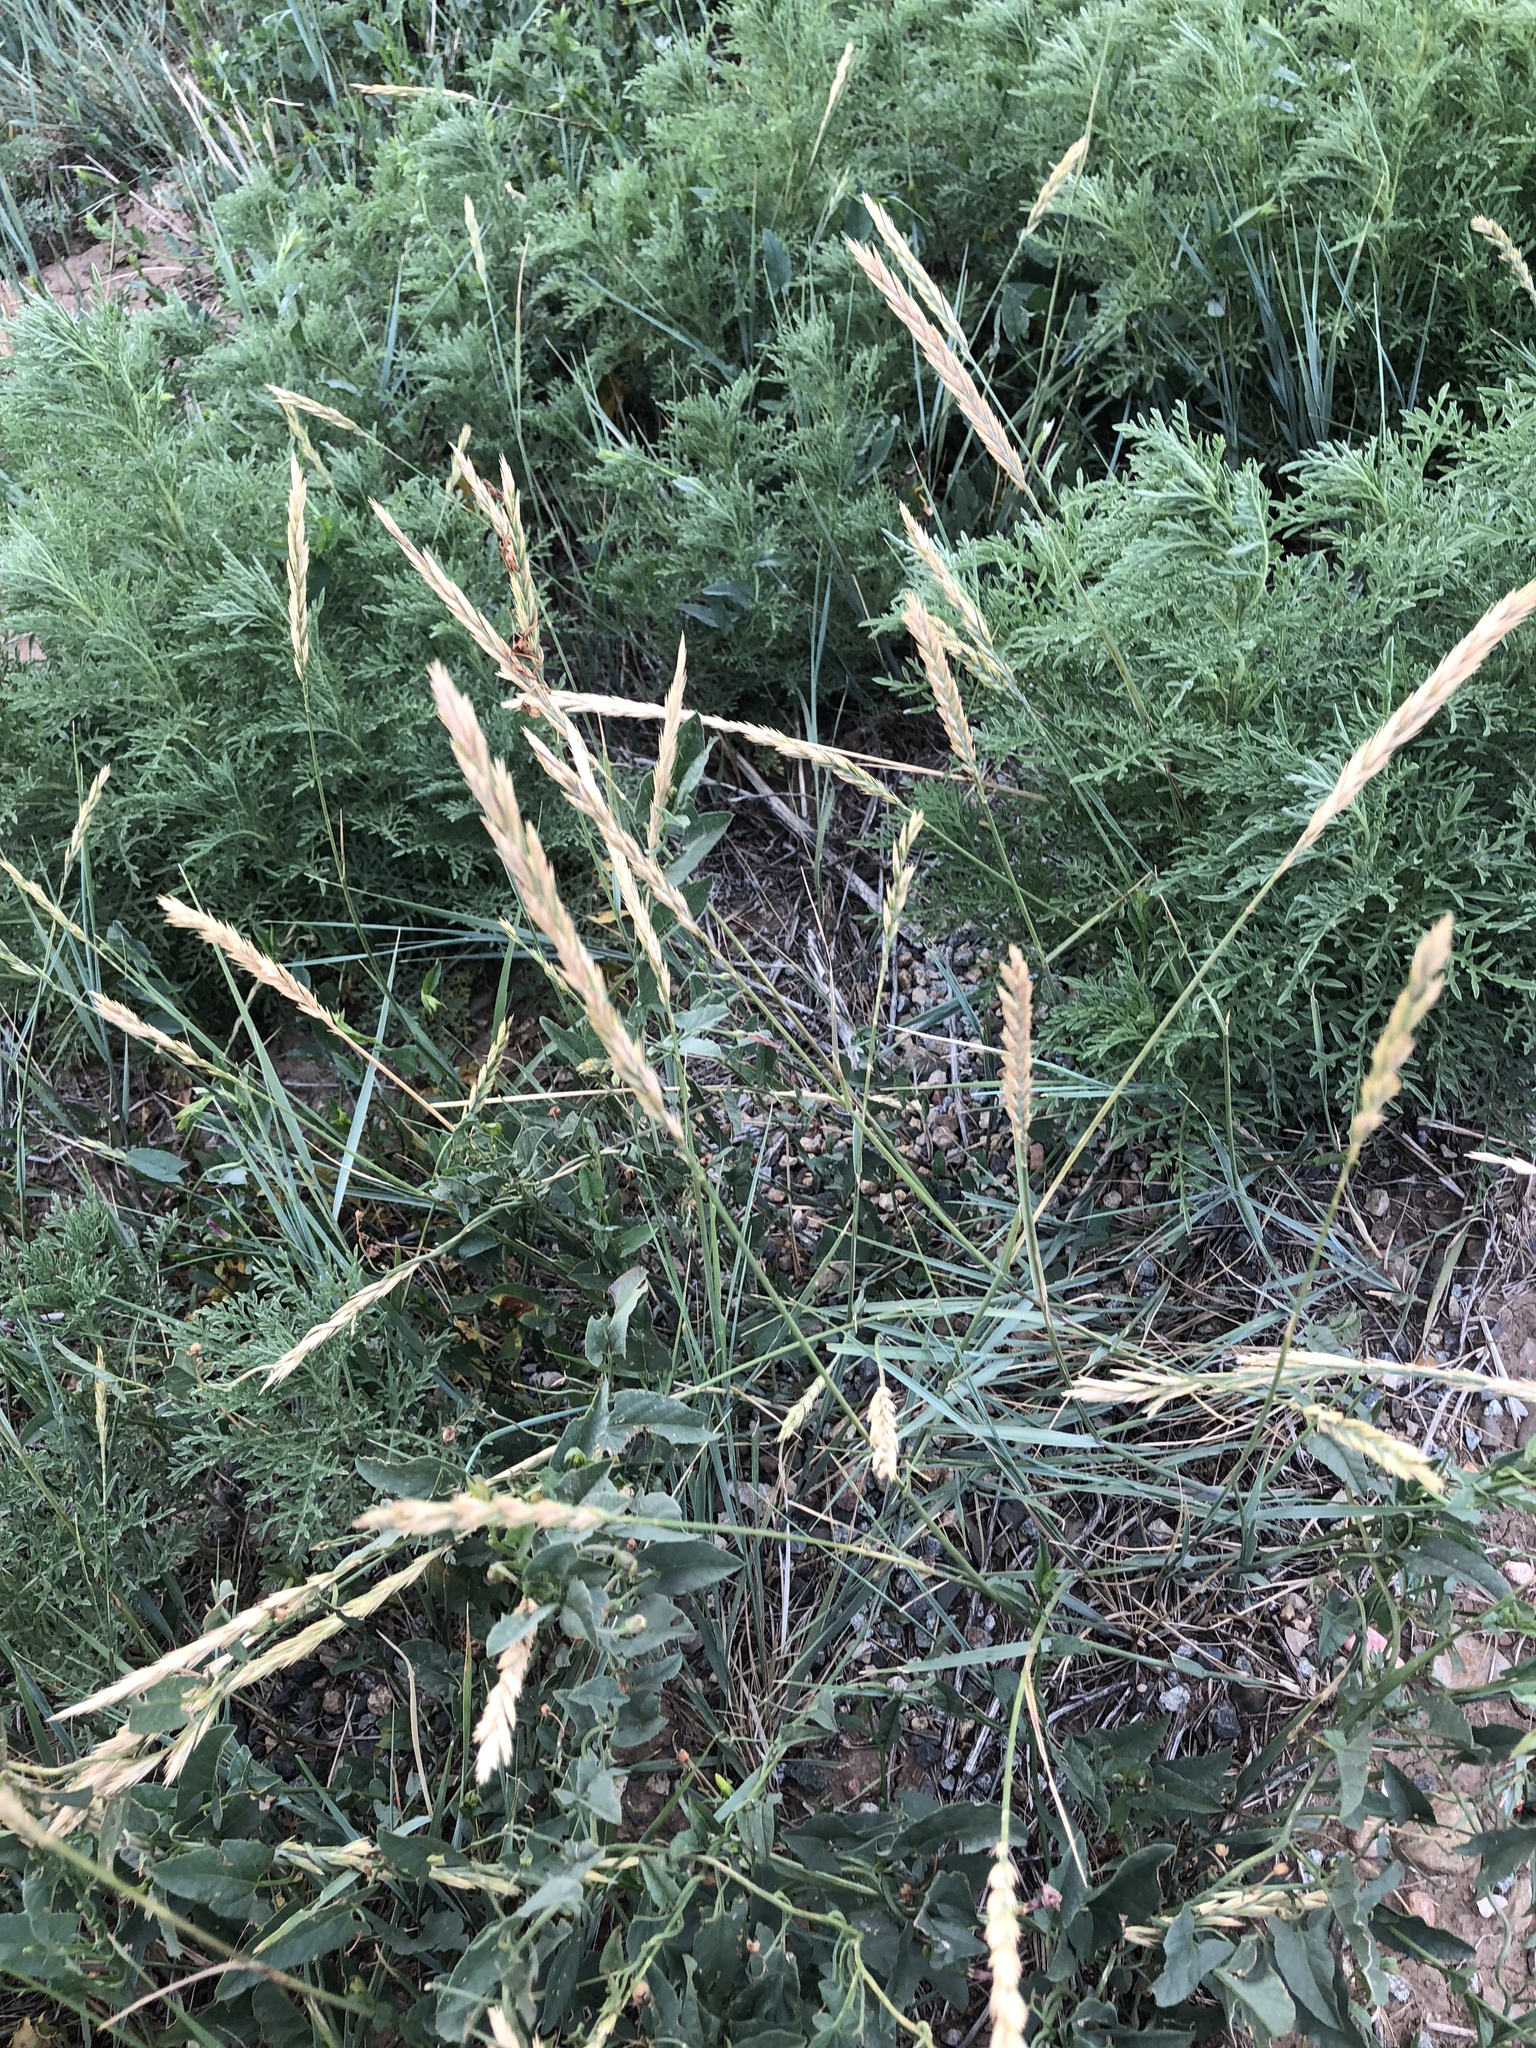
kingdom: Plantae
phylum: Tracheophyta
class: Liliopsida
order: Poales
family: Poaceae
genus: Elymus
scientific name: Elymus repens
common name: Quackgrass
